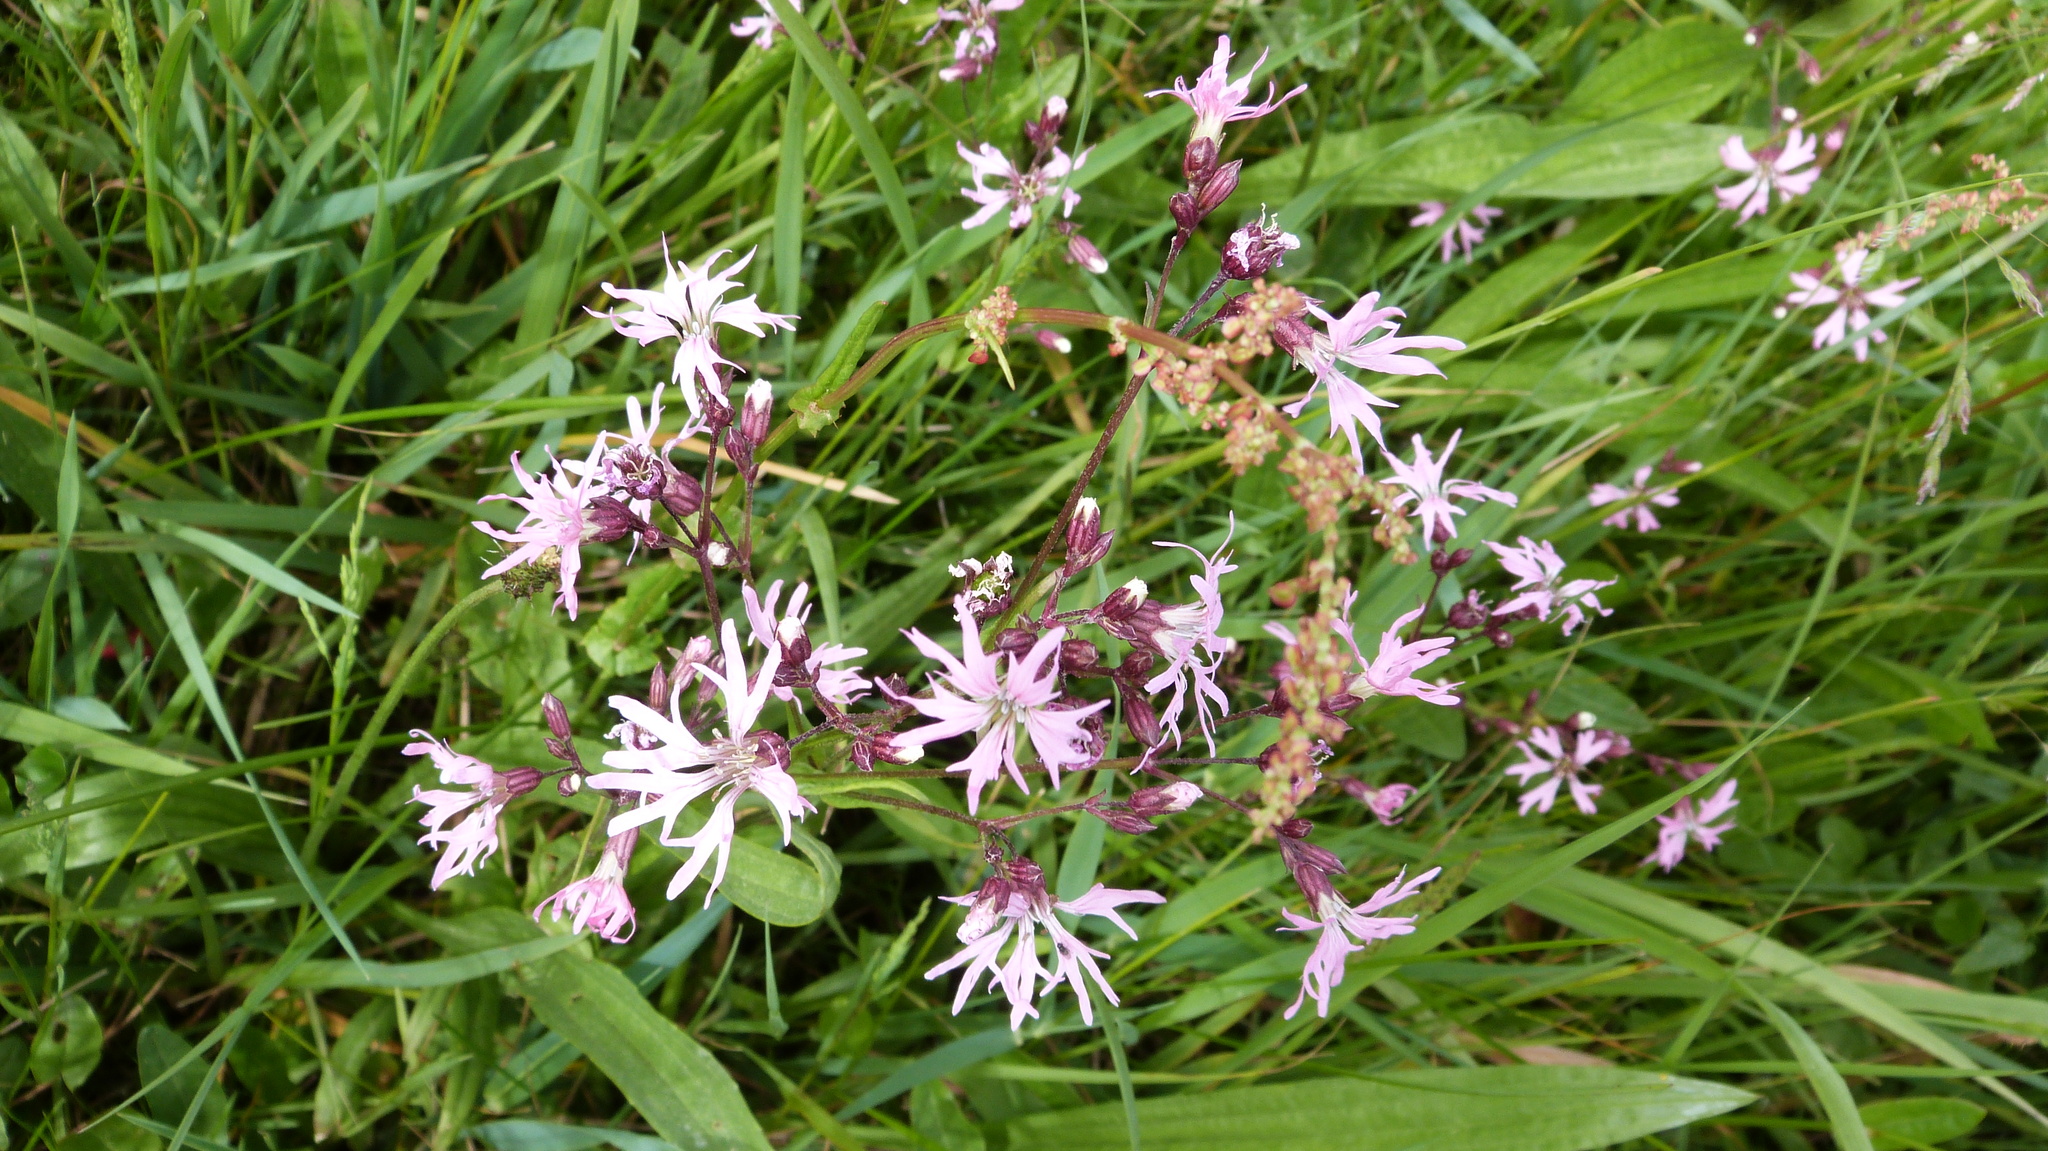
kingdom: Plantae
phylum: Tracheophyta
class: Magnoliopsida
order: Caryophyllales
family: Caryophyllaceae
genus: Silene
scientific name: Silene flos-cuculi
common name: Ragged-robin
